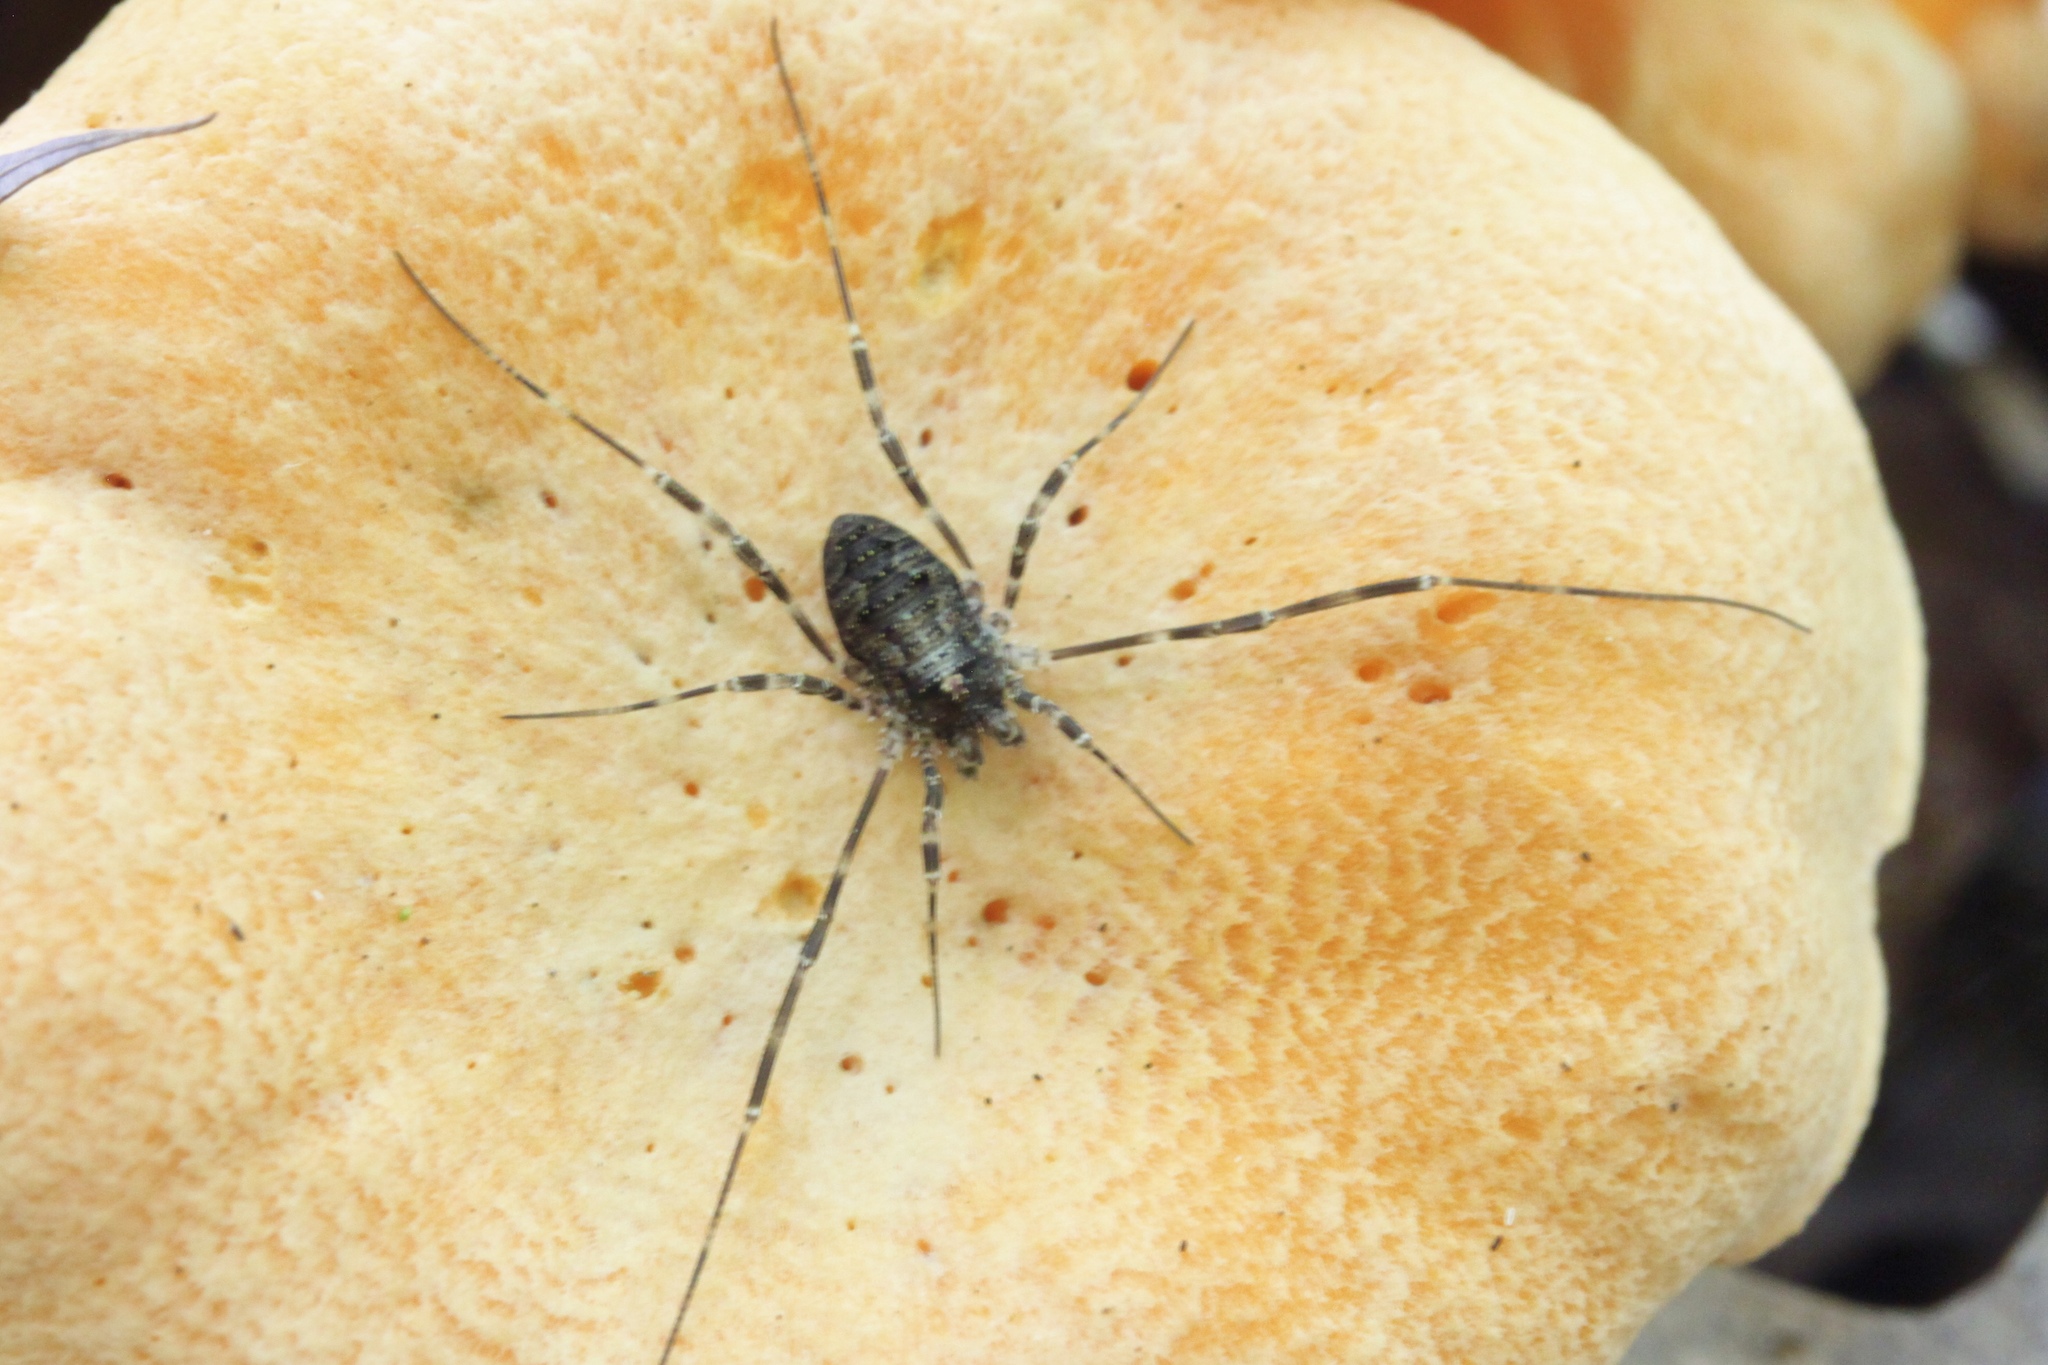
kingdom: Animalia
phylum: Arthropoda
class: Arachnida
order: Opiliones
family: Phalangiidae
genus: Odiellus
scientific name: Odiellus pictus
